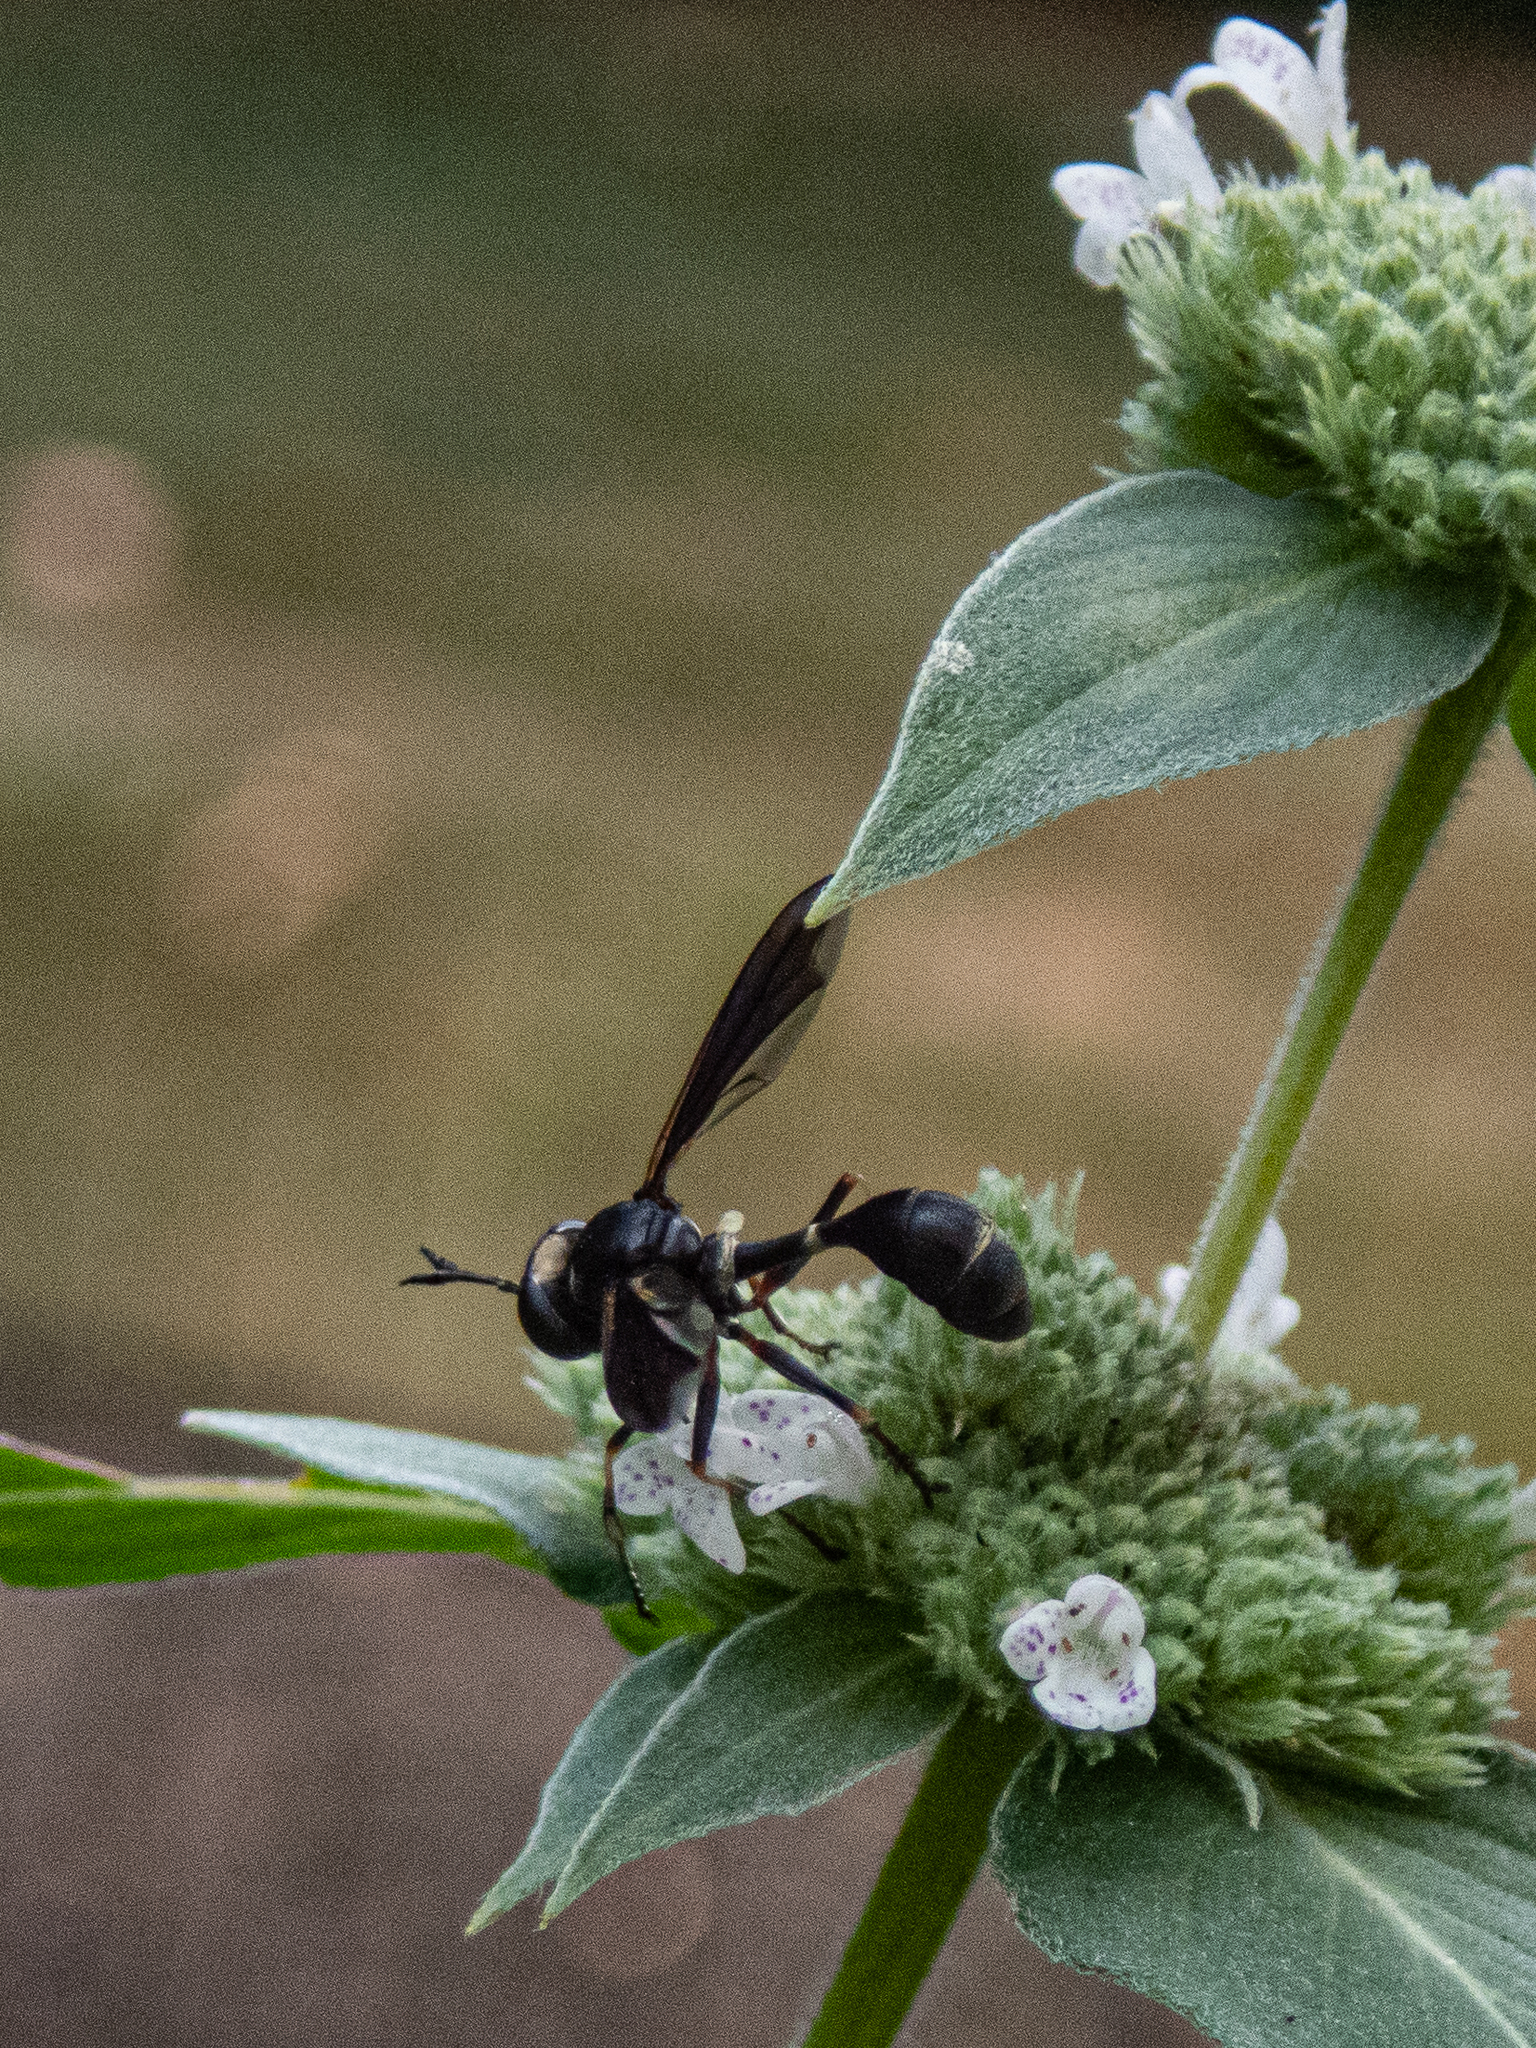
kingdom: Animalia
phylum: Arthropoda
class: Insecta
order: Diptera
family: Conopidae
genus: Physocephala
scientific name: Physocephala tibialis
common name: Common eastern physocephala
